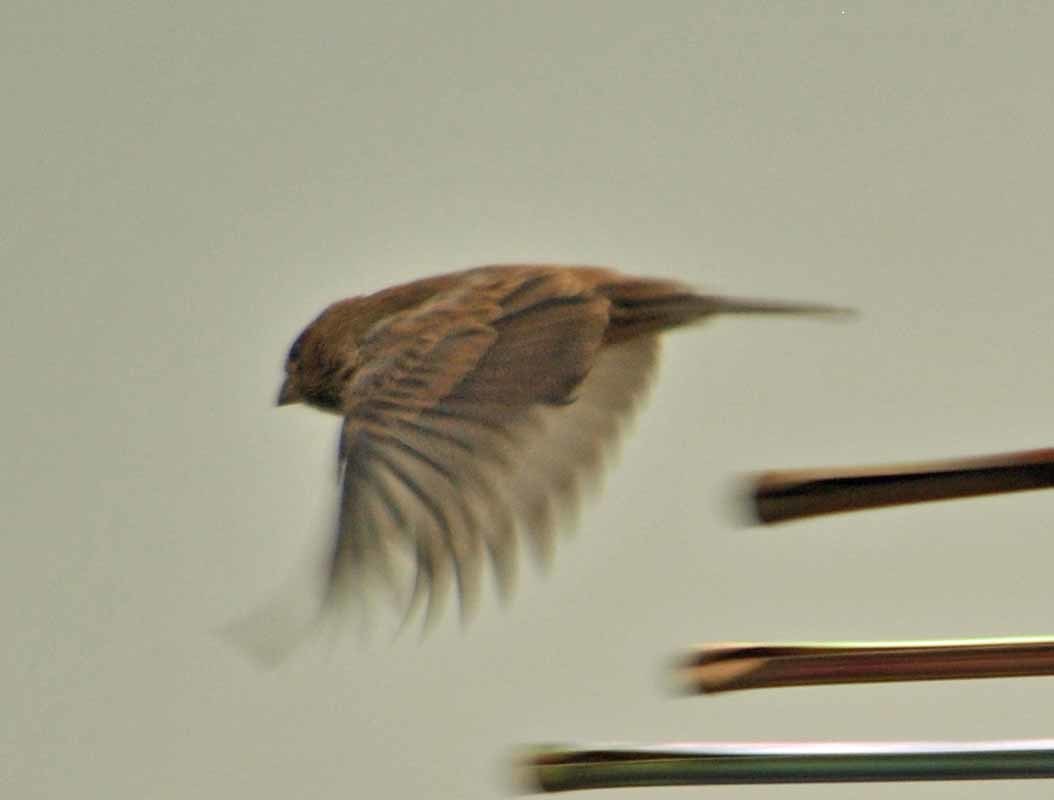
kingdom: Animalia
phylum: Chordata
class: Aves
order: Passeriformes
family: Fringillidae
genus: Haemorhous
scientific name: Haemorhous mexicanus
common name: House finch
